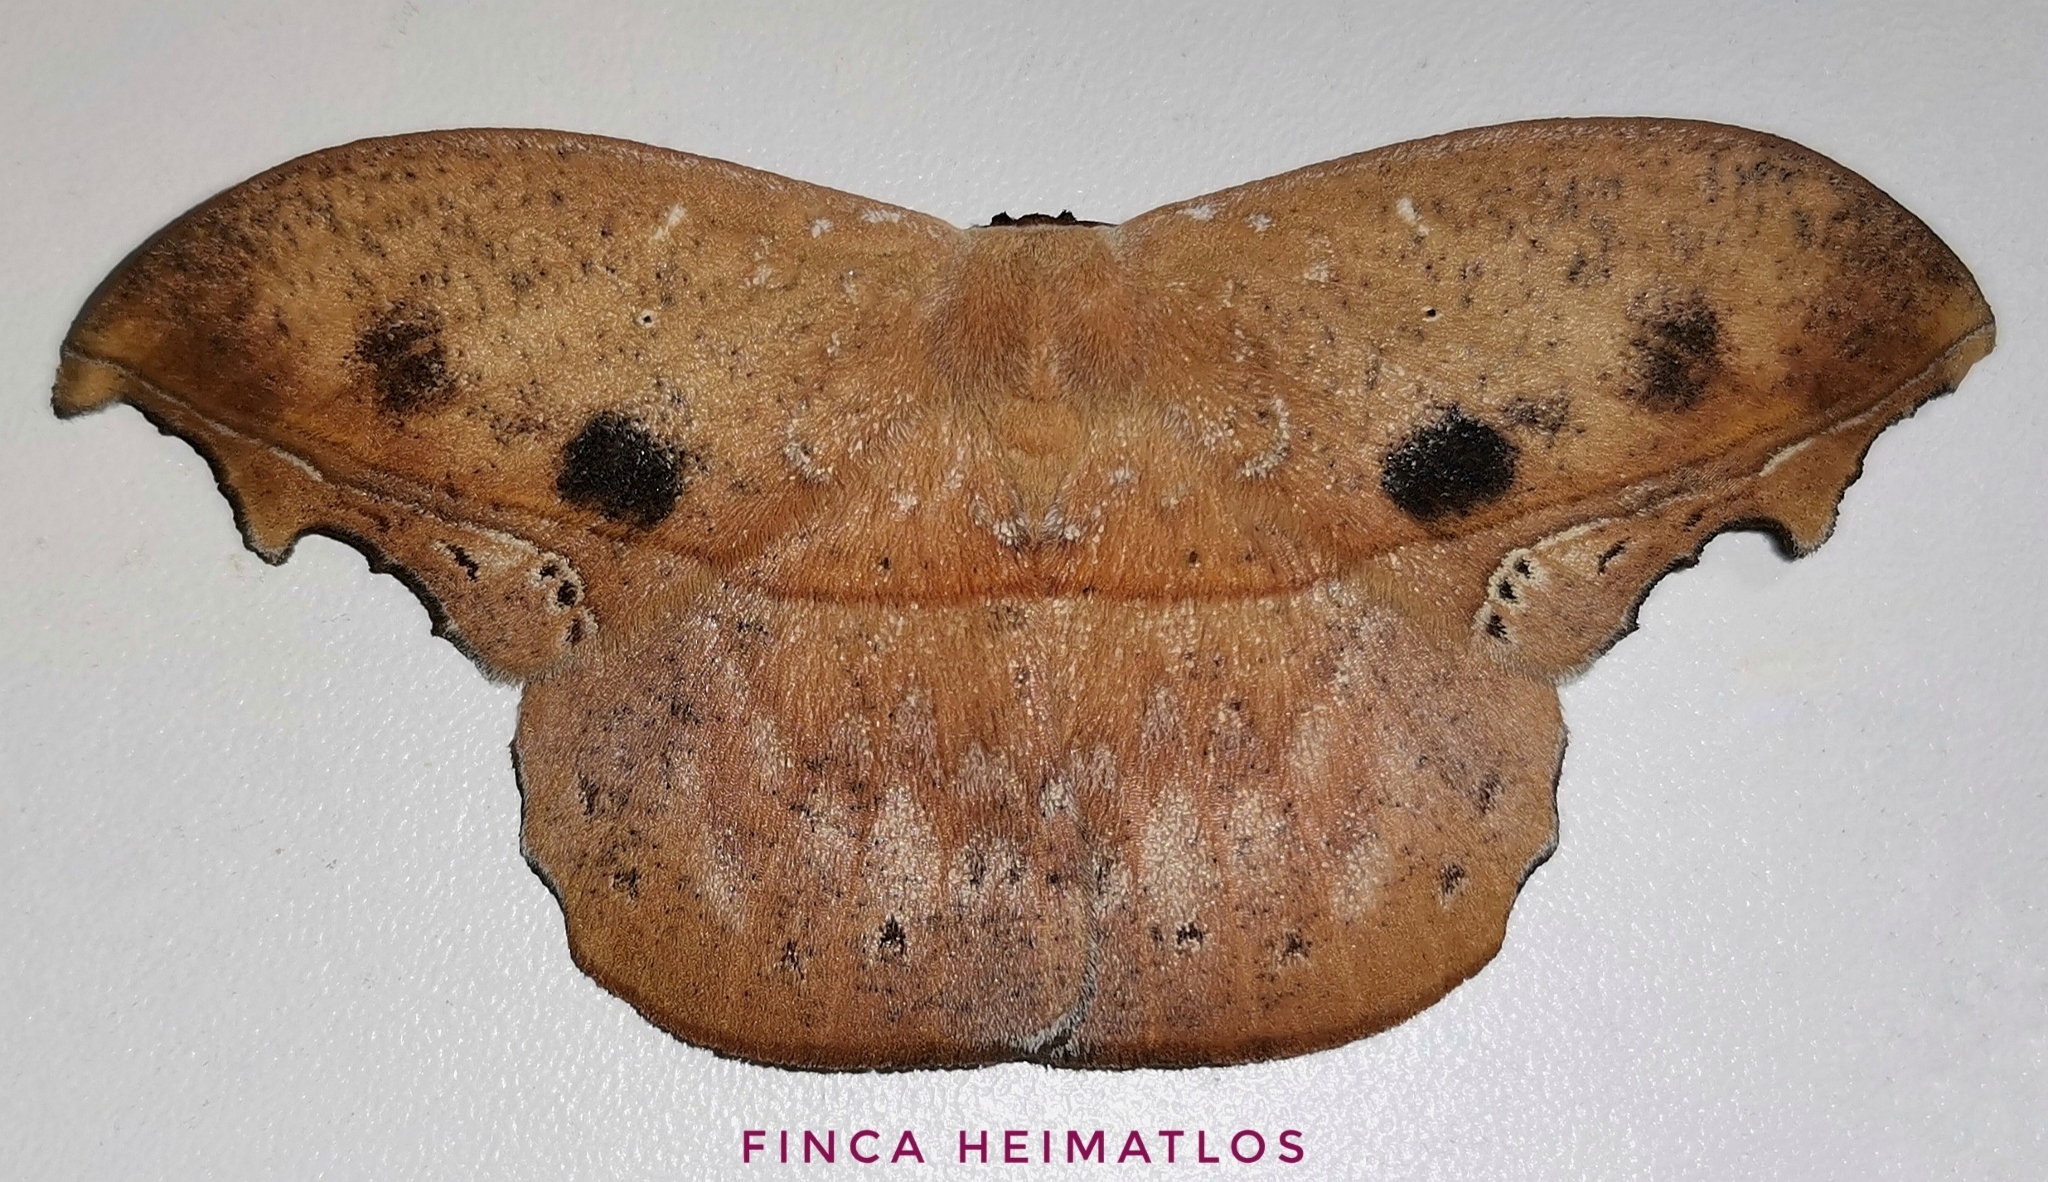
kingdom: Animalia
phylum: Arthropoda
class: Insecta
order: Lepidoptera
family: Saturniidae
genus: Oxytenis
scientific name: Oxytenis naemia
